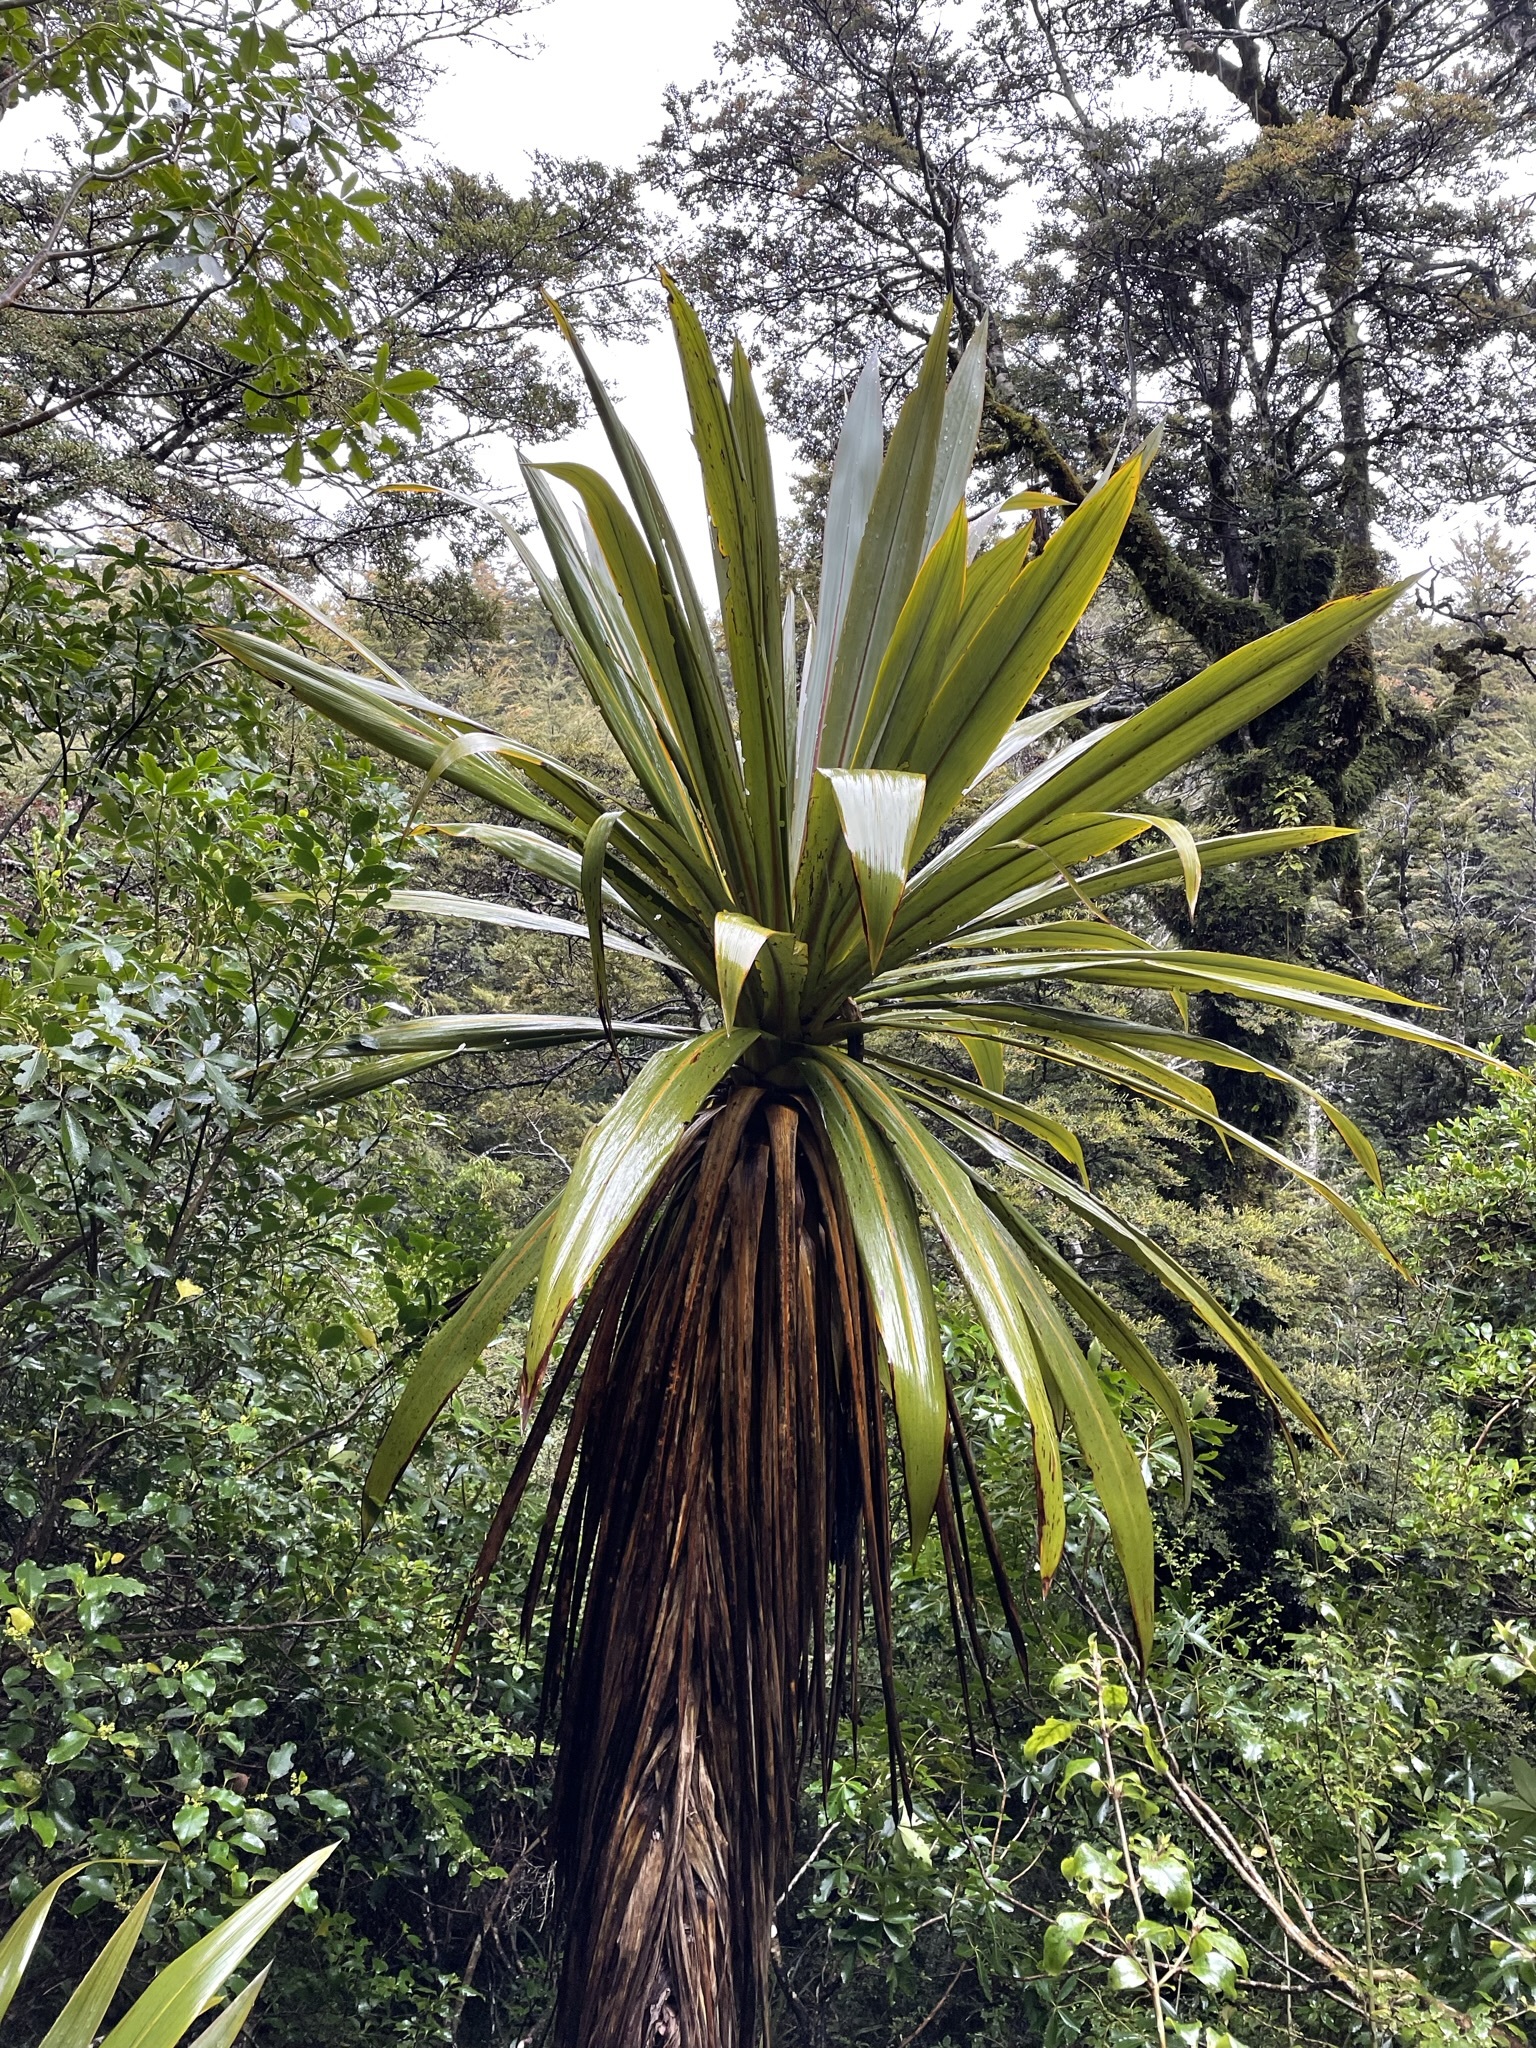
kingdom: Plantae
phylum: Tracheophyta
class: Liliopsida
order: Asparagales
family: Asparagaceae
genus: Cordyline
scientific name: Cordyline indivisa
